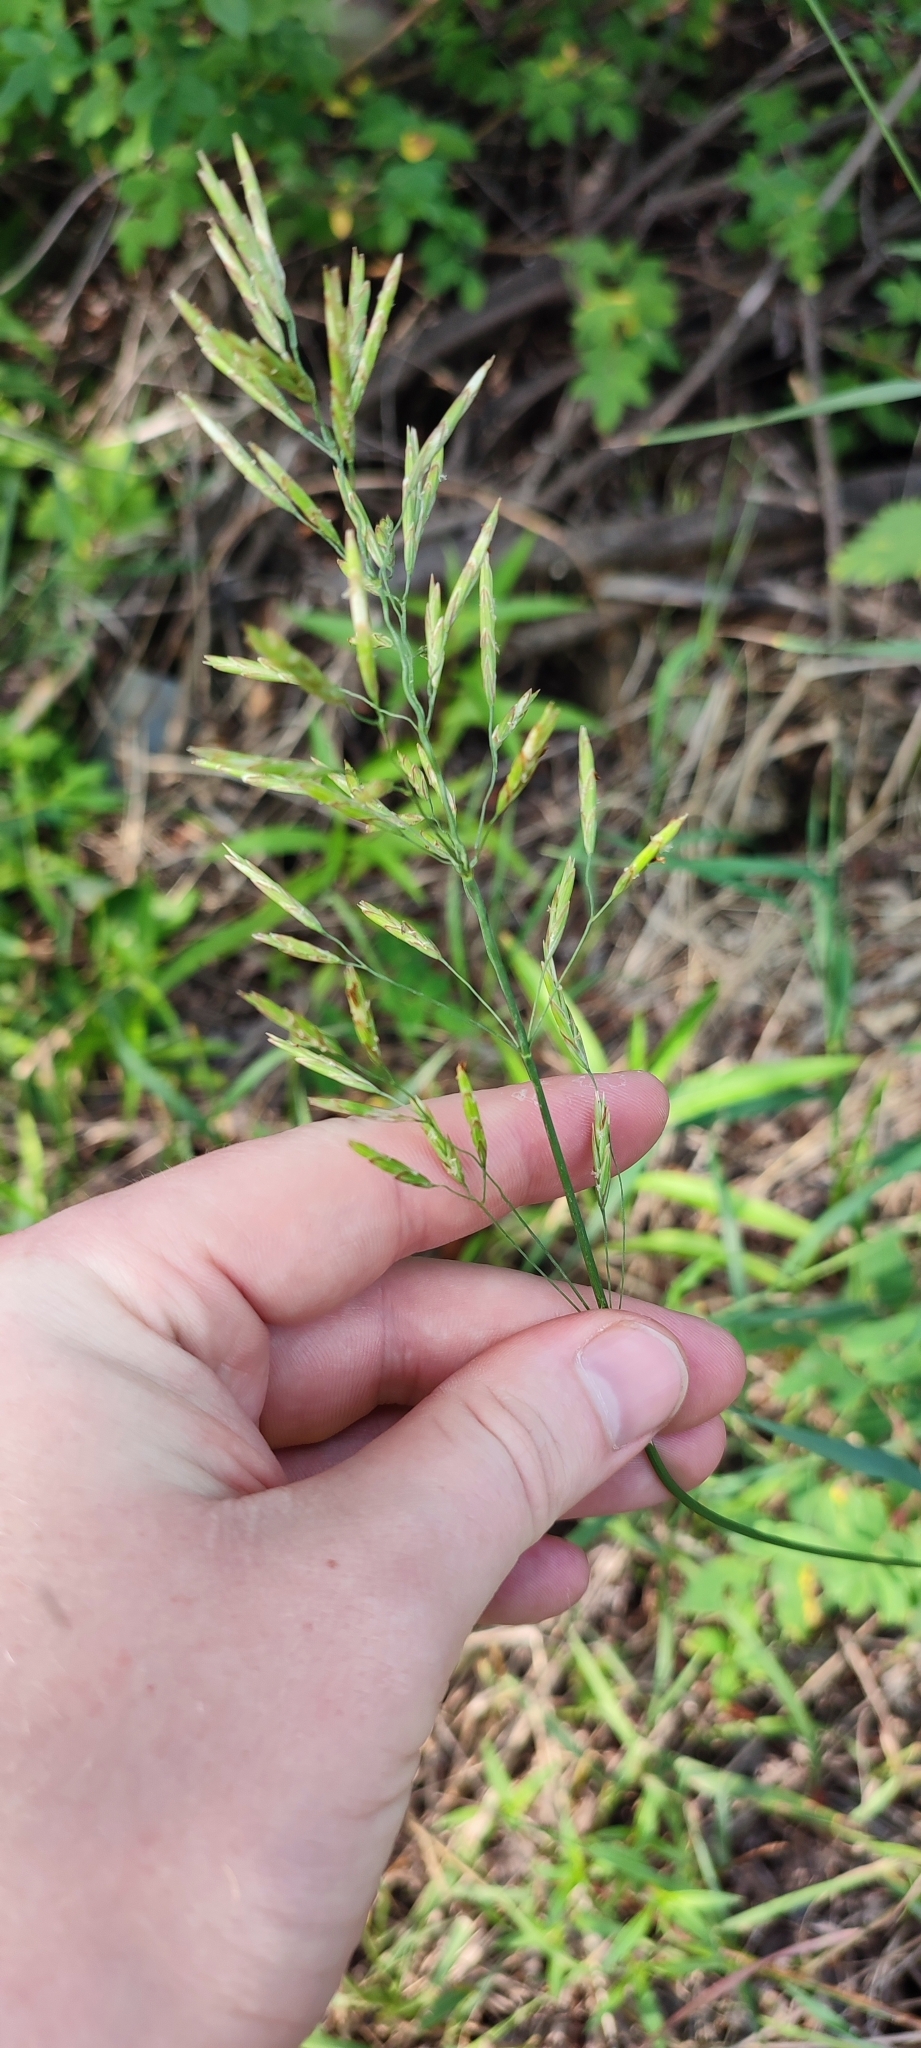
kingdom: Plantae
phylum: Tracheophyta
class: Liliopsida
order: Poales
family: Poaceae
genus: Bromus
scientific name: Bromus inermis
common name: Smooth brome
